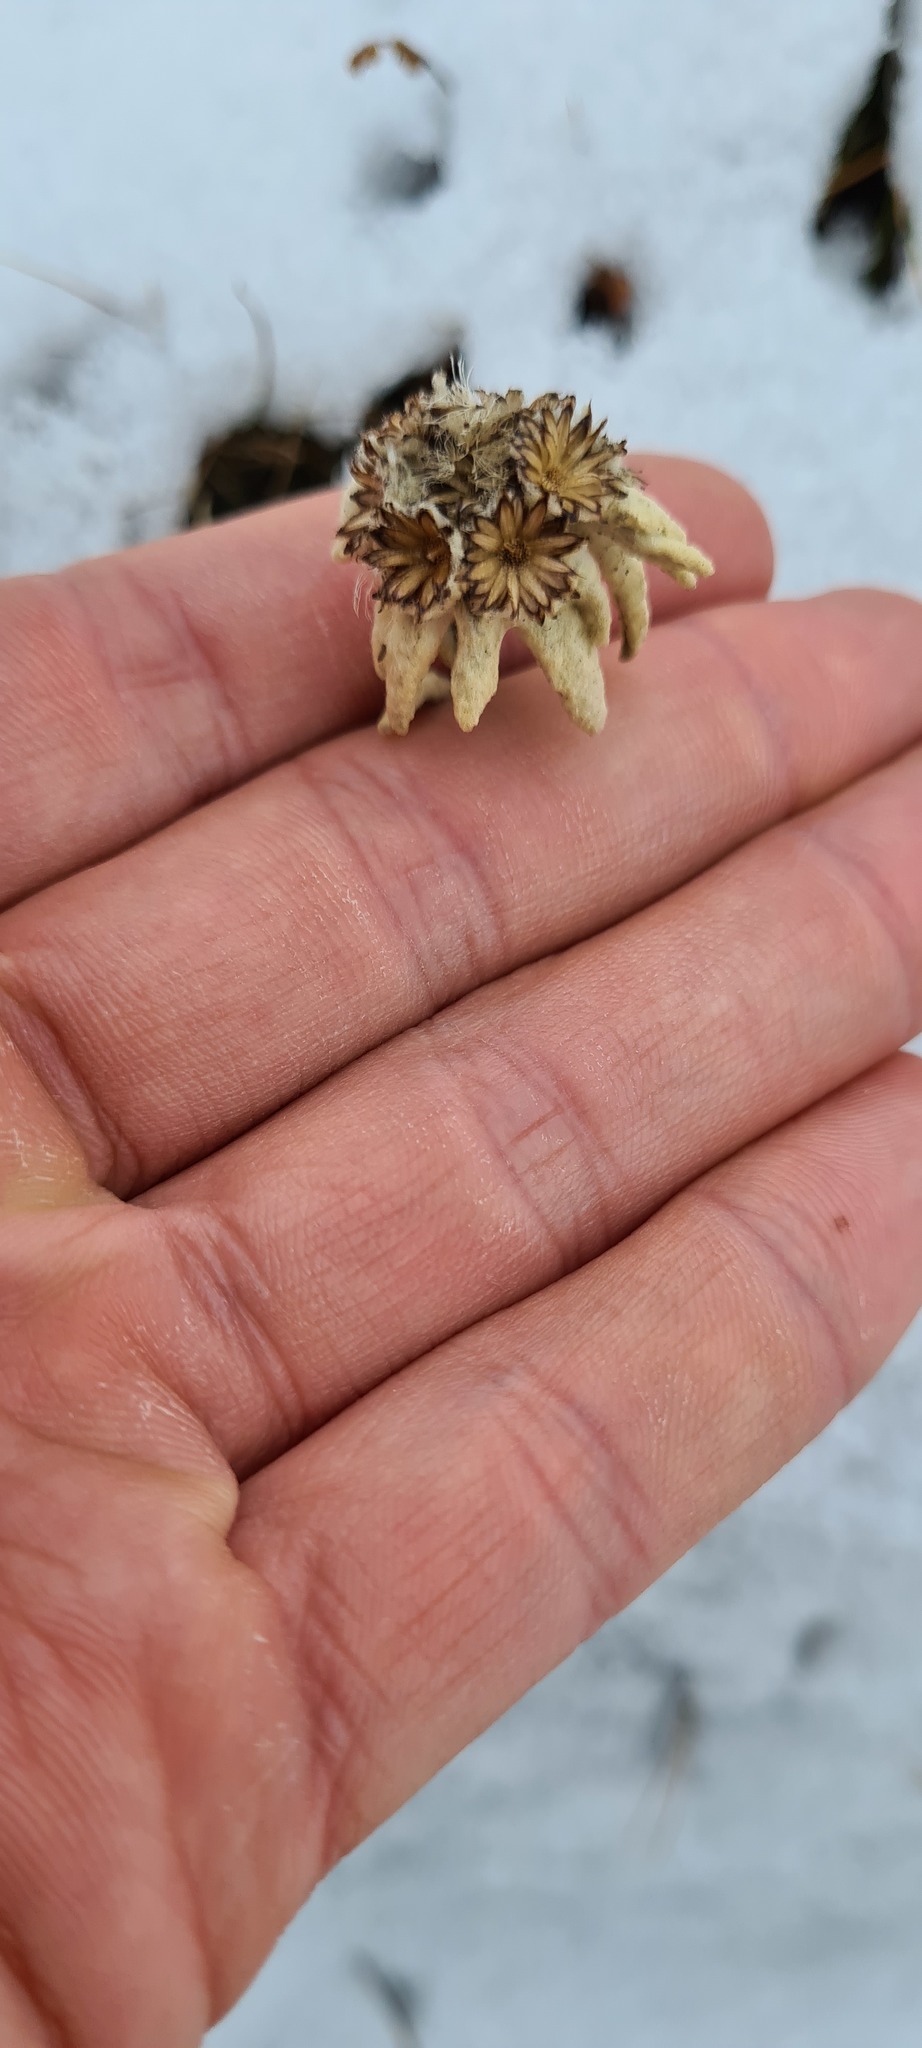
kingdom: Plantae
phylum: Tracheophyta
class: Magnoliopsida
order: Asterales
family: Asteraceae
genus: Leontopodium
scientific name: Leontopodium nivale
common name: Edelweiss
